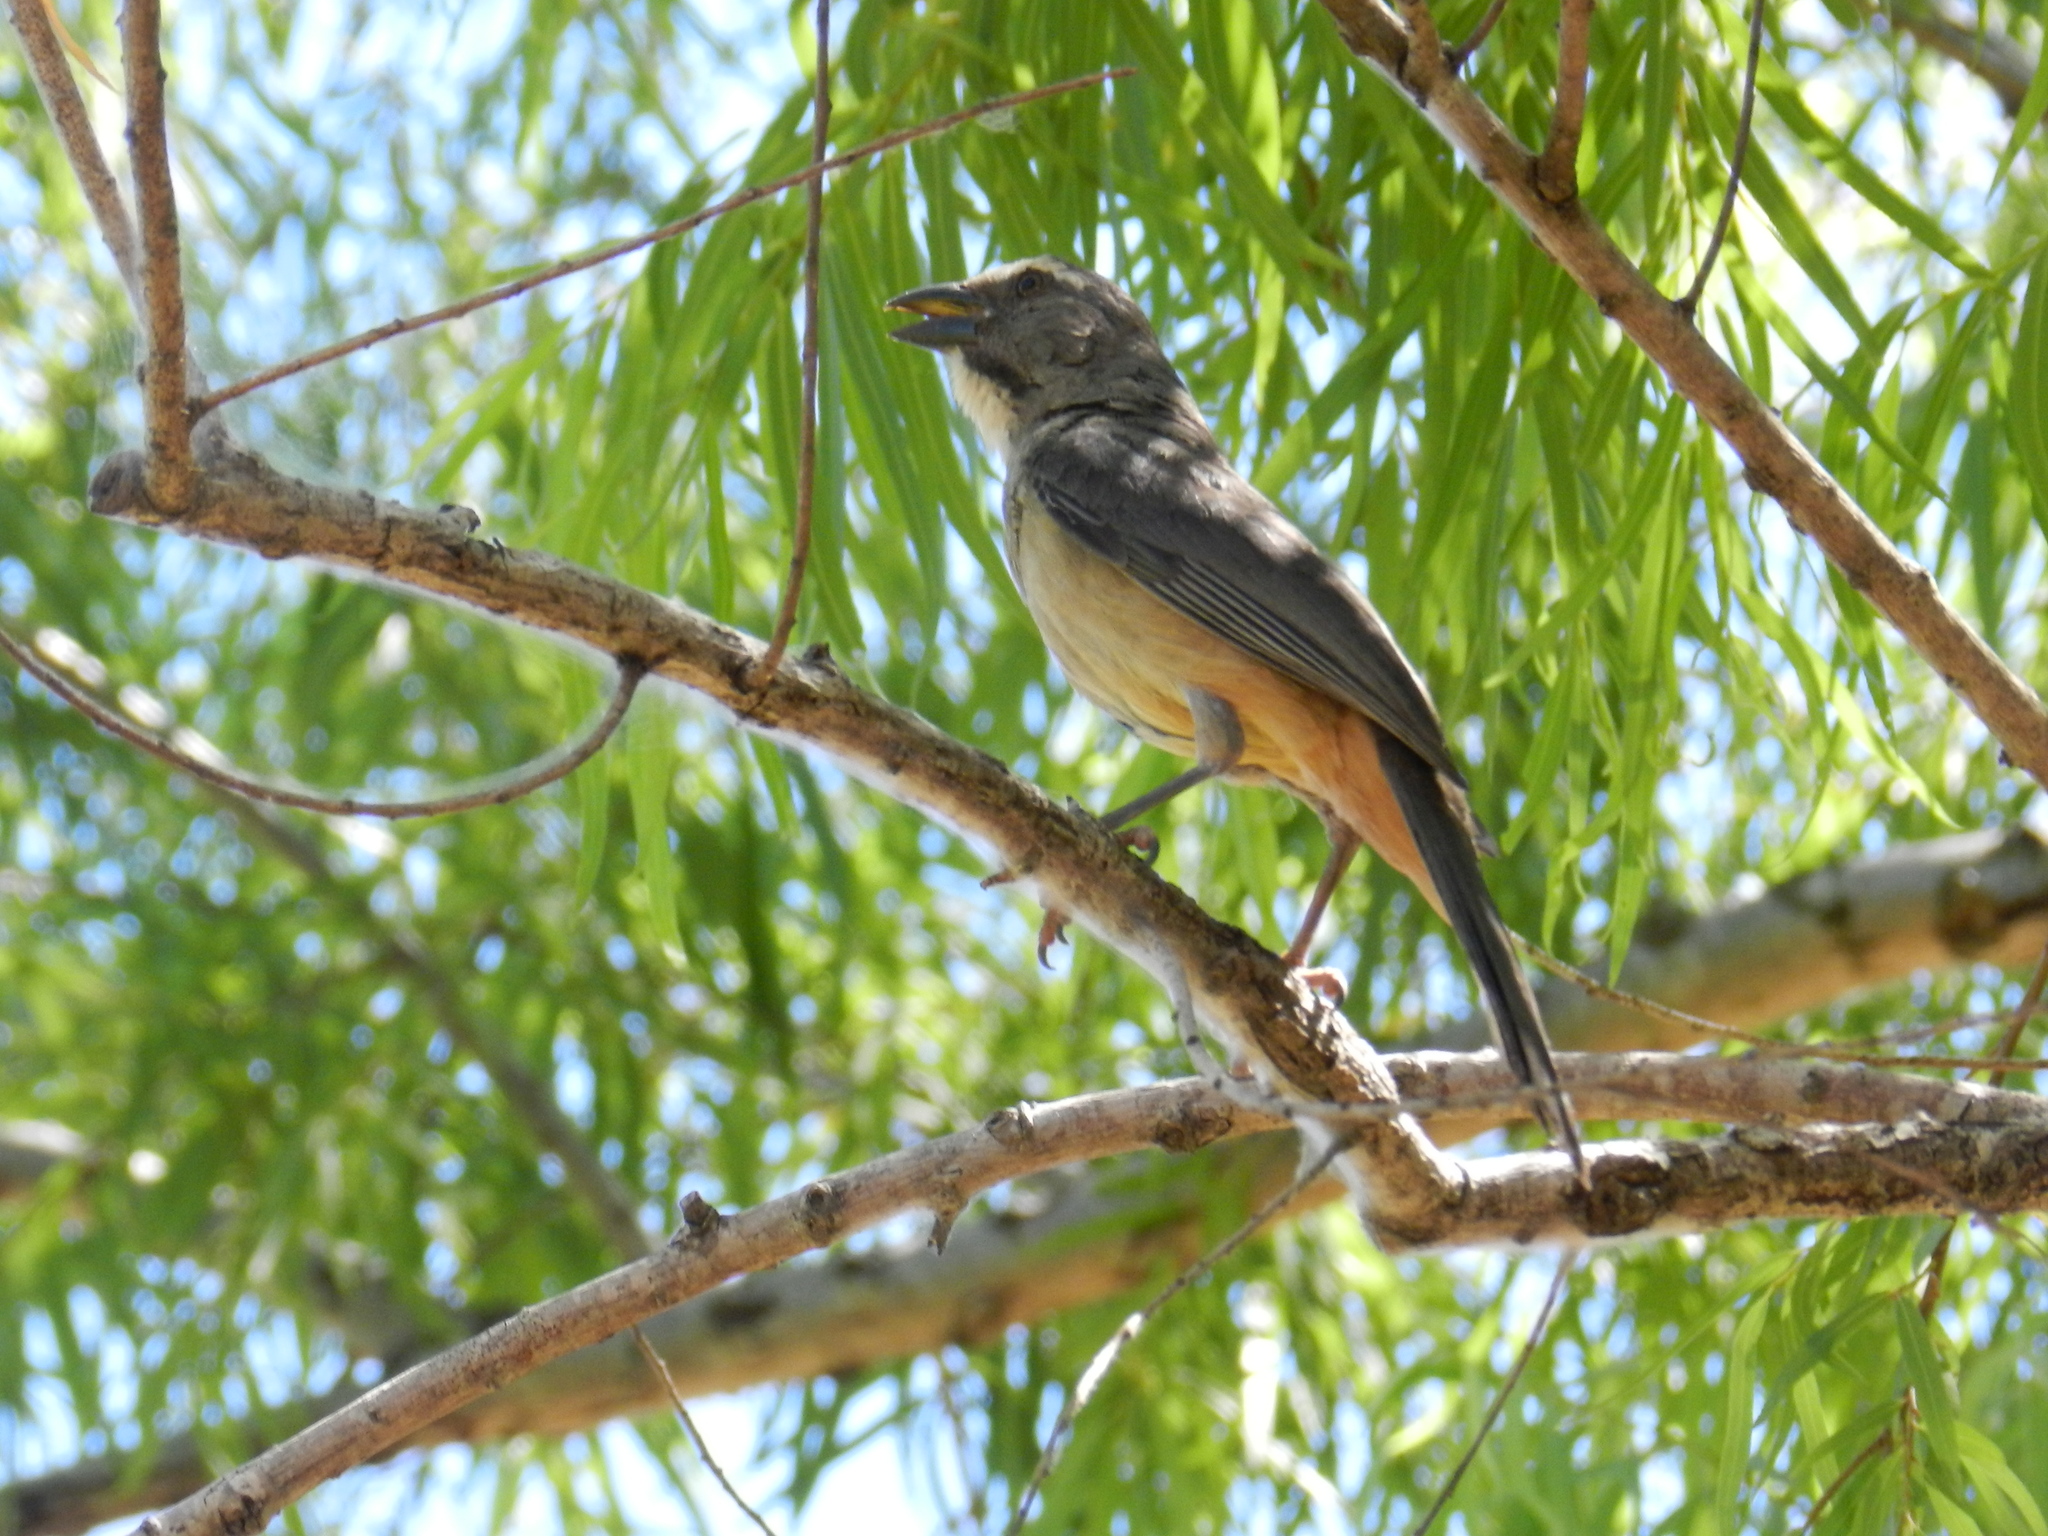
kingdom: Animalia
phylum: Chordata
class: Aves
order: Passeriformes
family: Thraupidae
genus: Saltator
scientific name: Saltator coerulescens
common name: Grayish saltator
